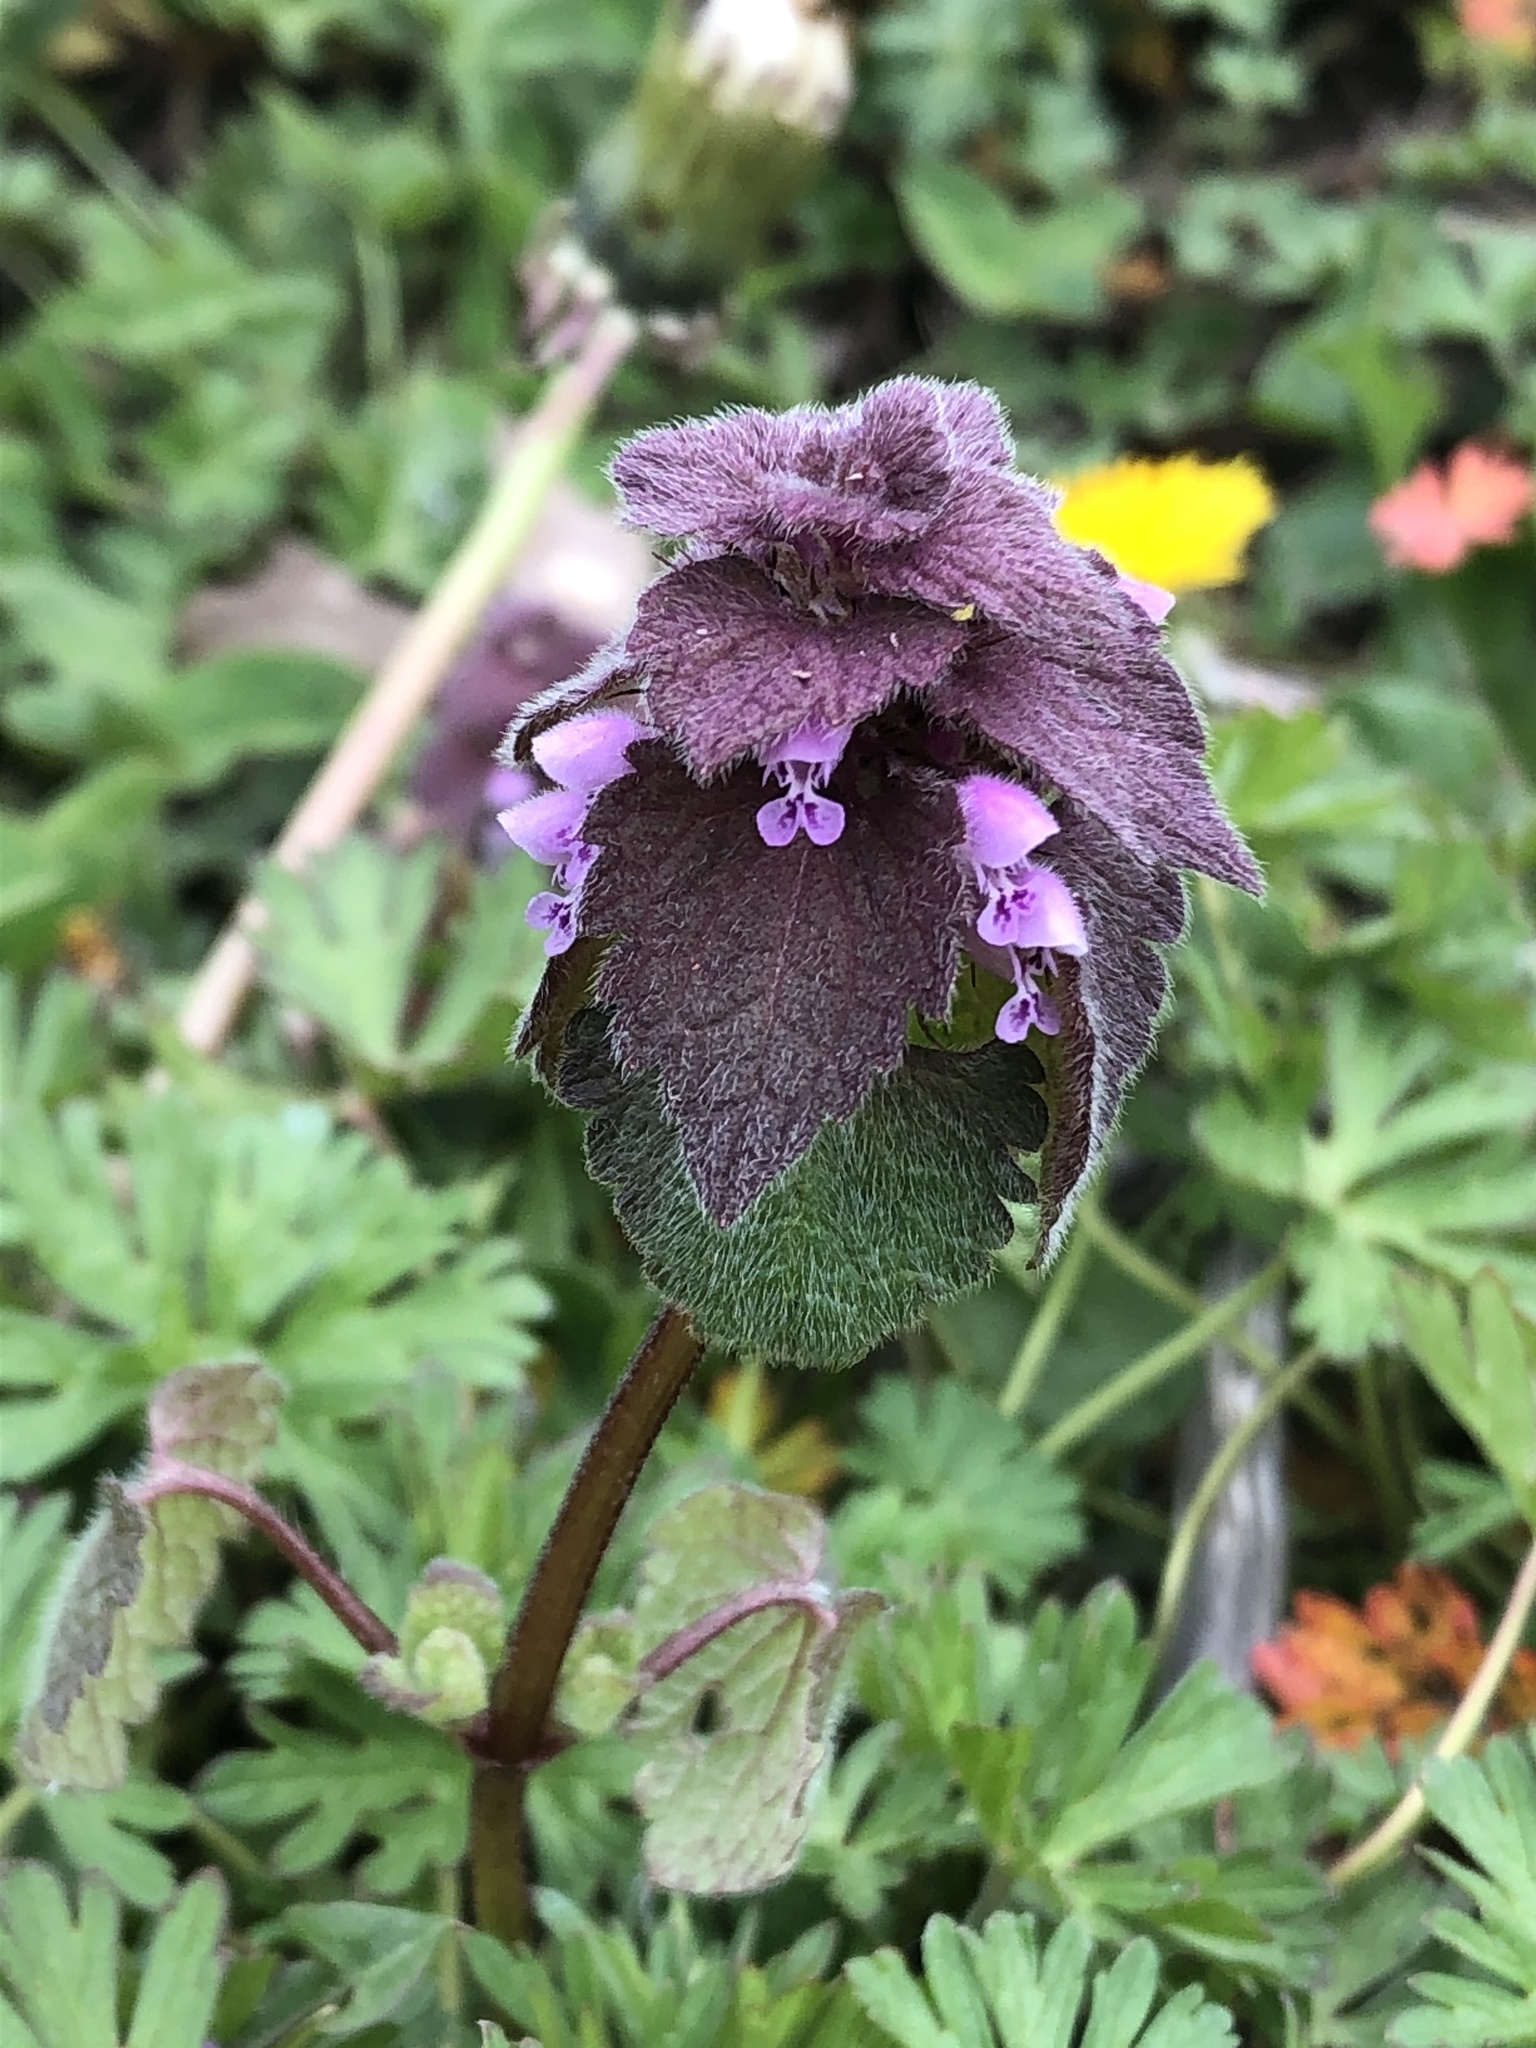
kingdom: Plantae
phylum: Tracheophyta
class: Magnoliopsida
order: Lamiales
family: Lamiaceae
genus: Lamium
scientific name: Lamium purpureum
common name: Red dead-nettle
